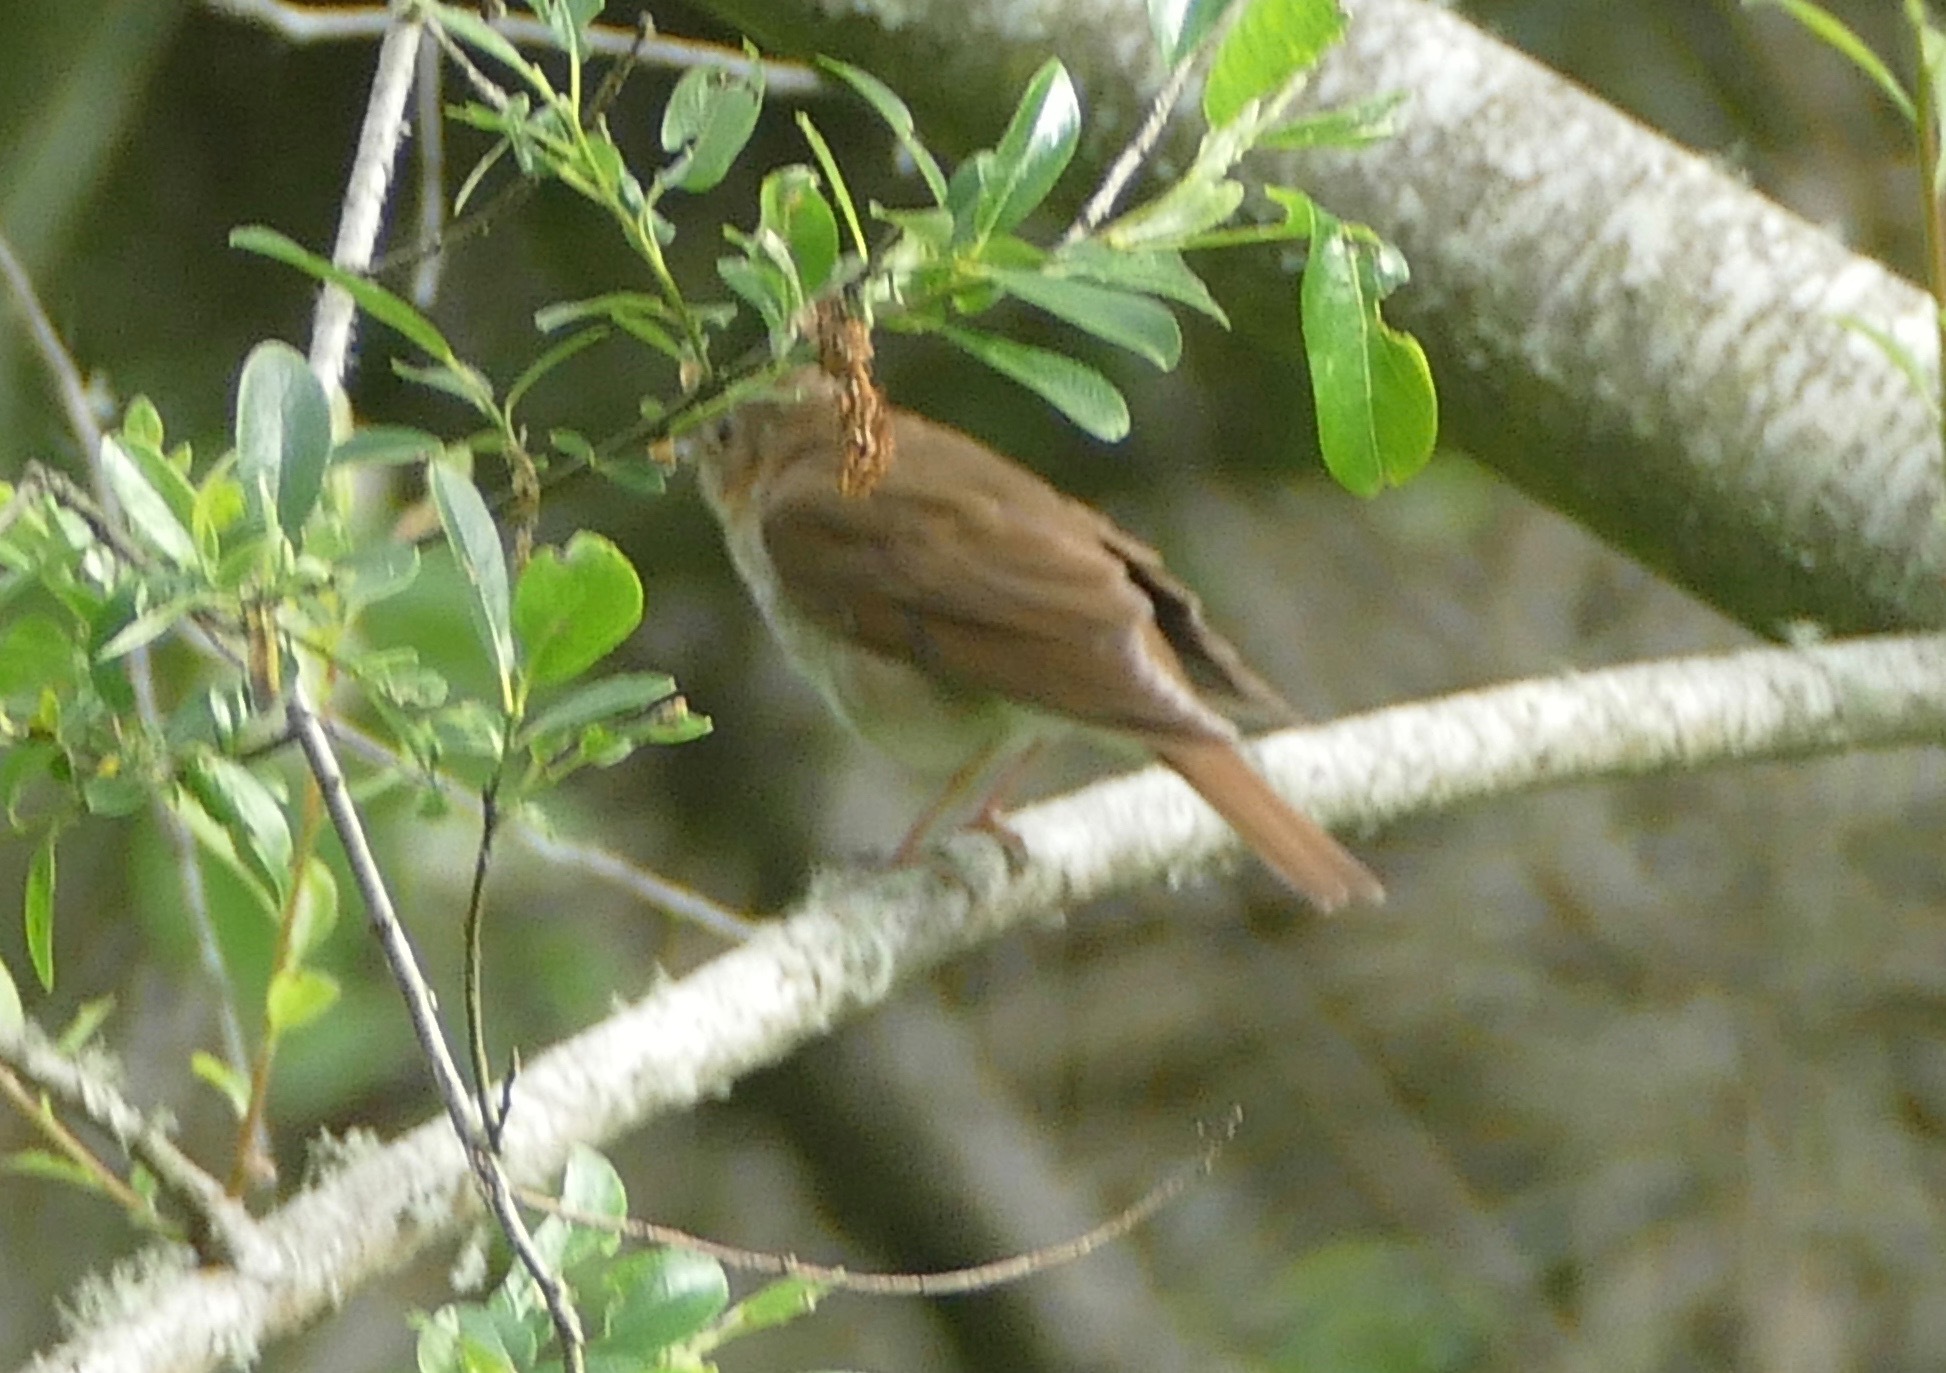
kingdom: Animalia
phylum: Chordata
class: Aves
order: Passeriformes
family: Turdidae
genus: Catharus
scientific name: Catharus ustulatus
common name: Swainson's thrush
